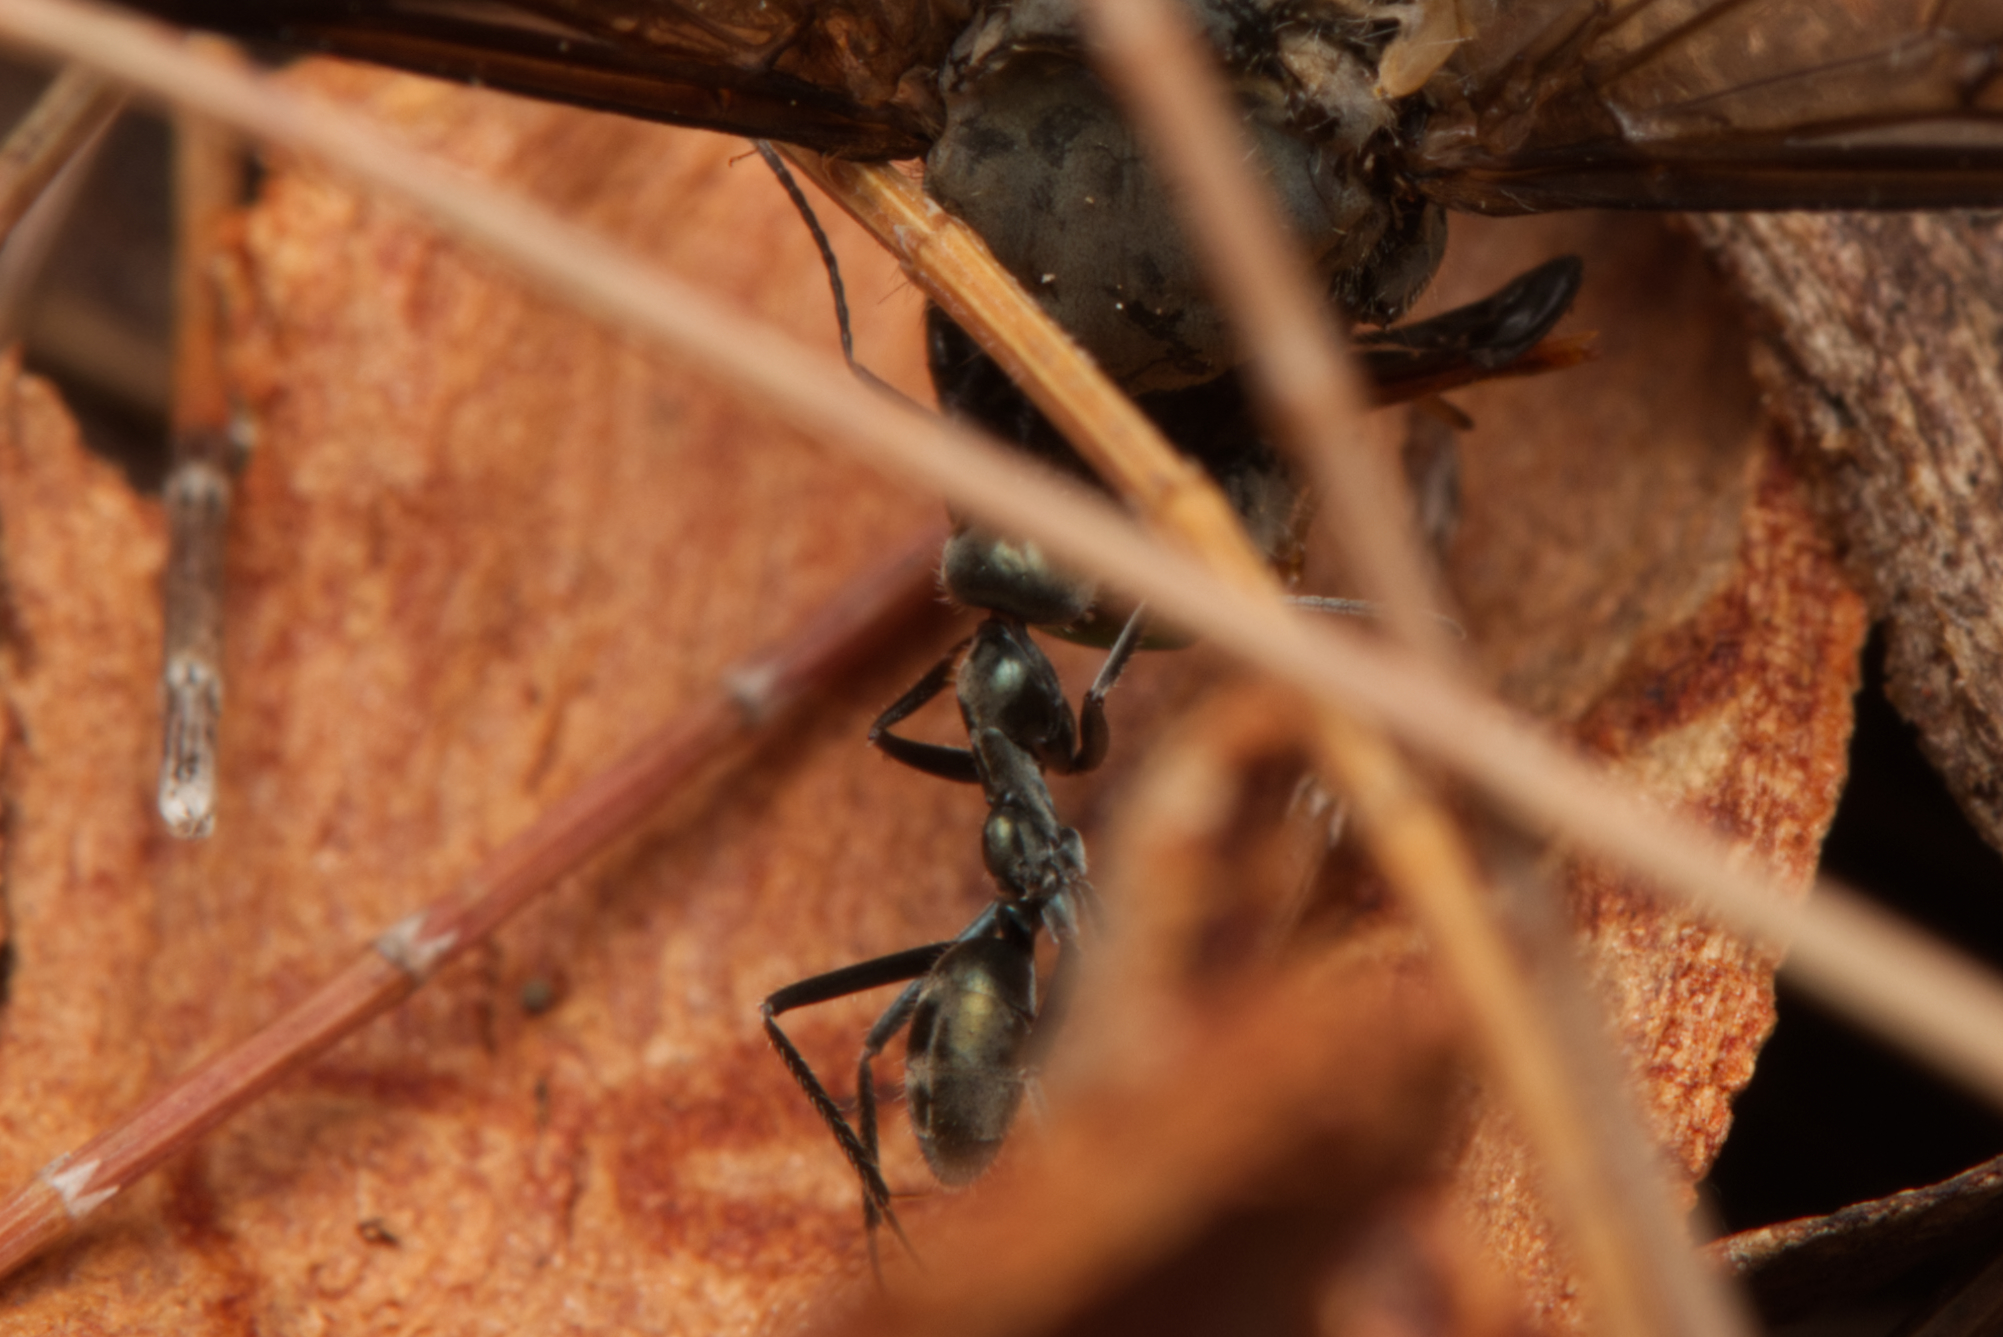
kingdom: Animalia
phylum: Arthropoda
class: Insecta
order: Hymenoptera
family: Formicidae
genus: Iridomyrmex
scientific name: Iridomyrmex
